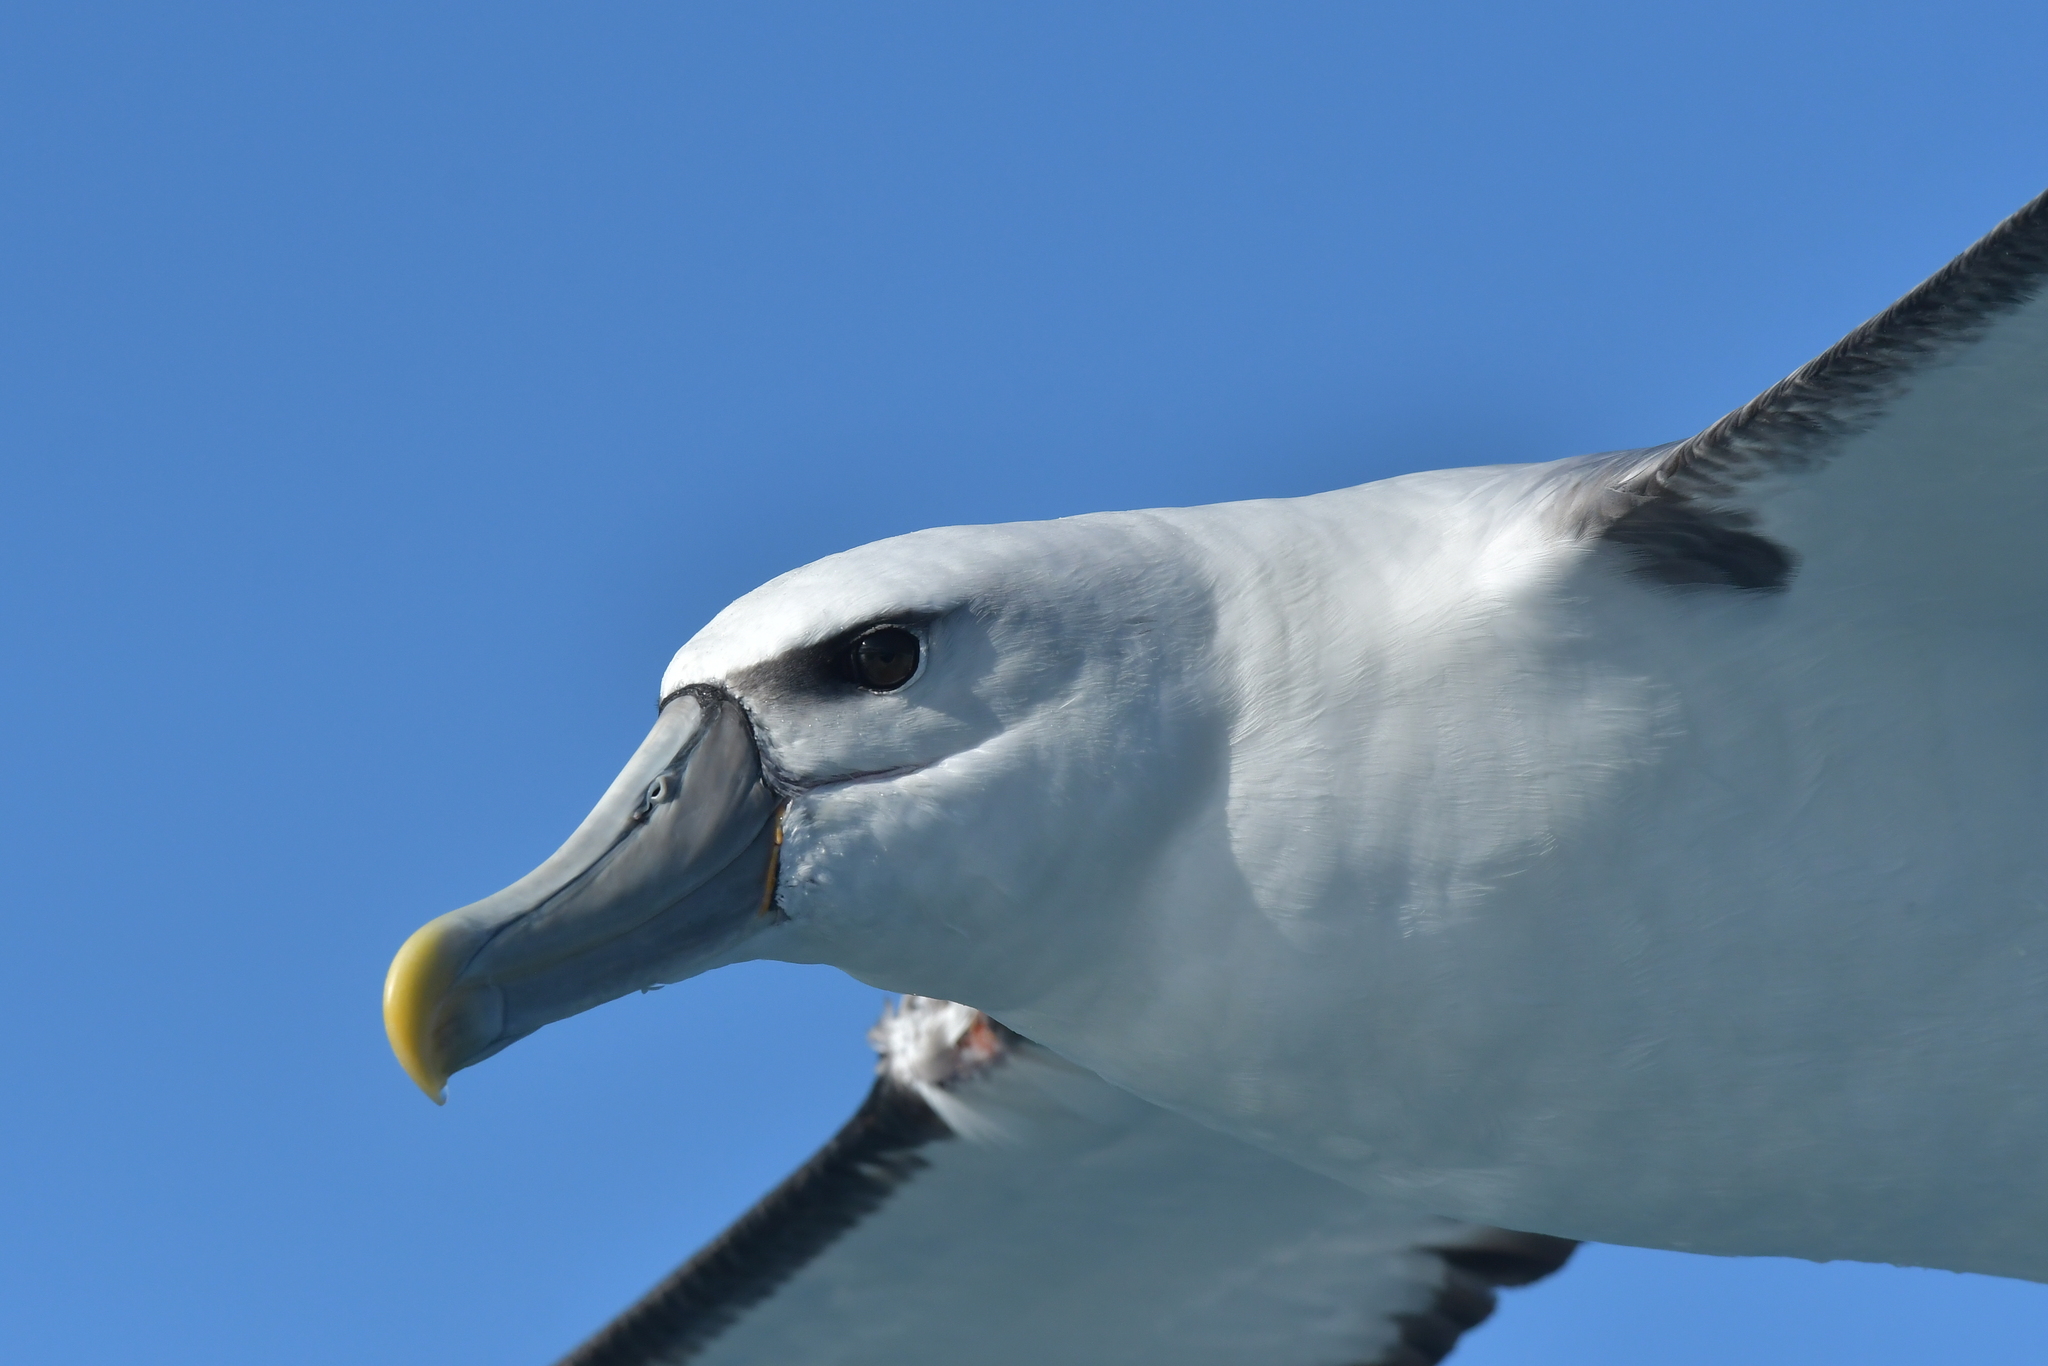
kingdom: Animalia
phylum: Chordata
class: Aves
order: Procellariiformes
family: Diomedeidae
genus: Thalassarche
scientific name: Thalassarche cauta
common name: Shy albatross
